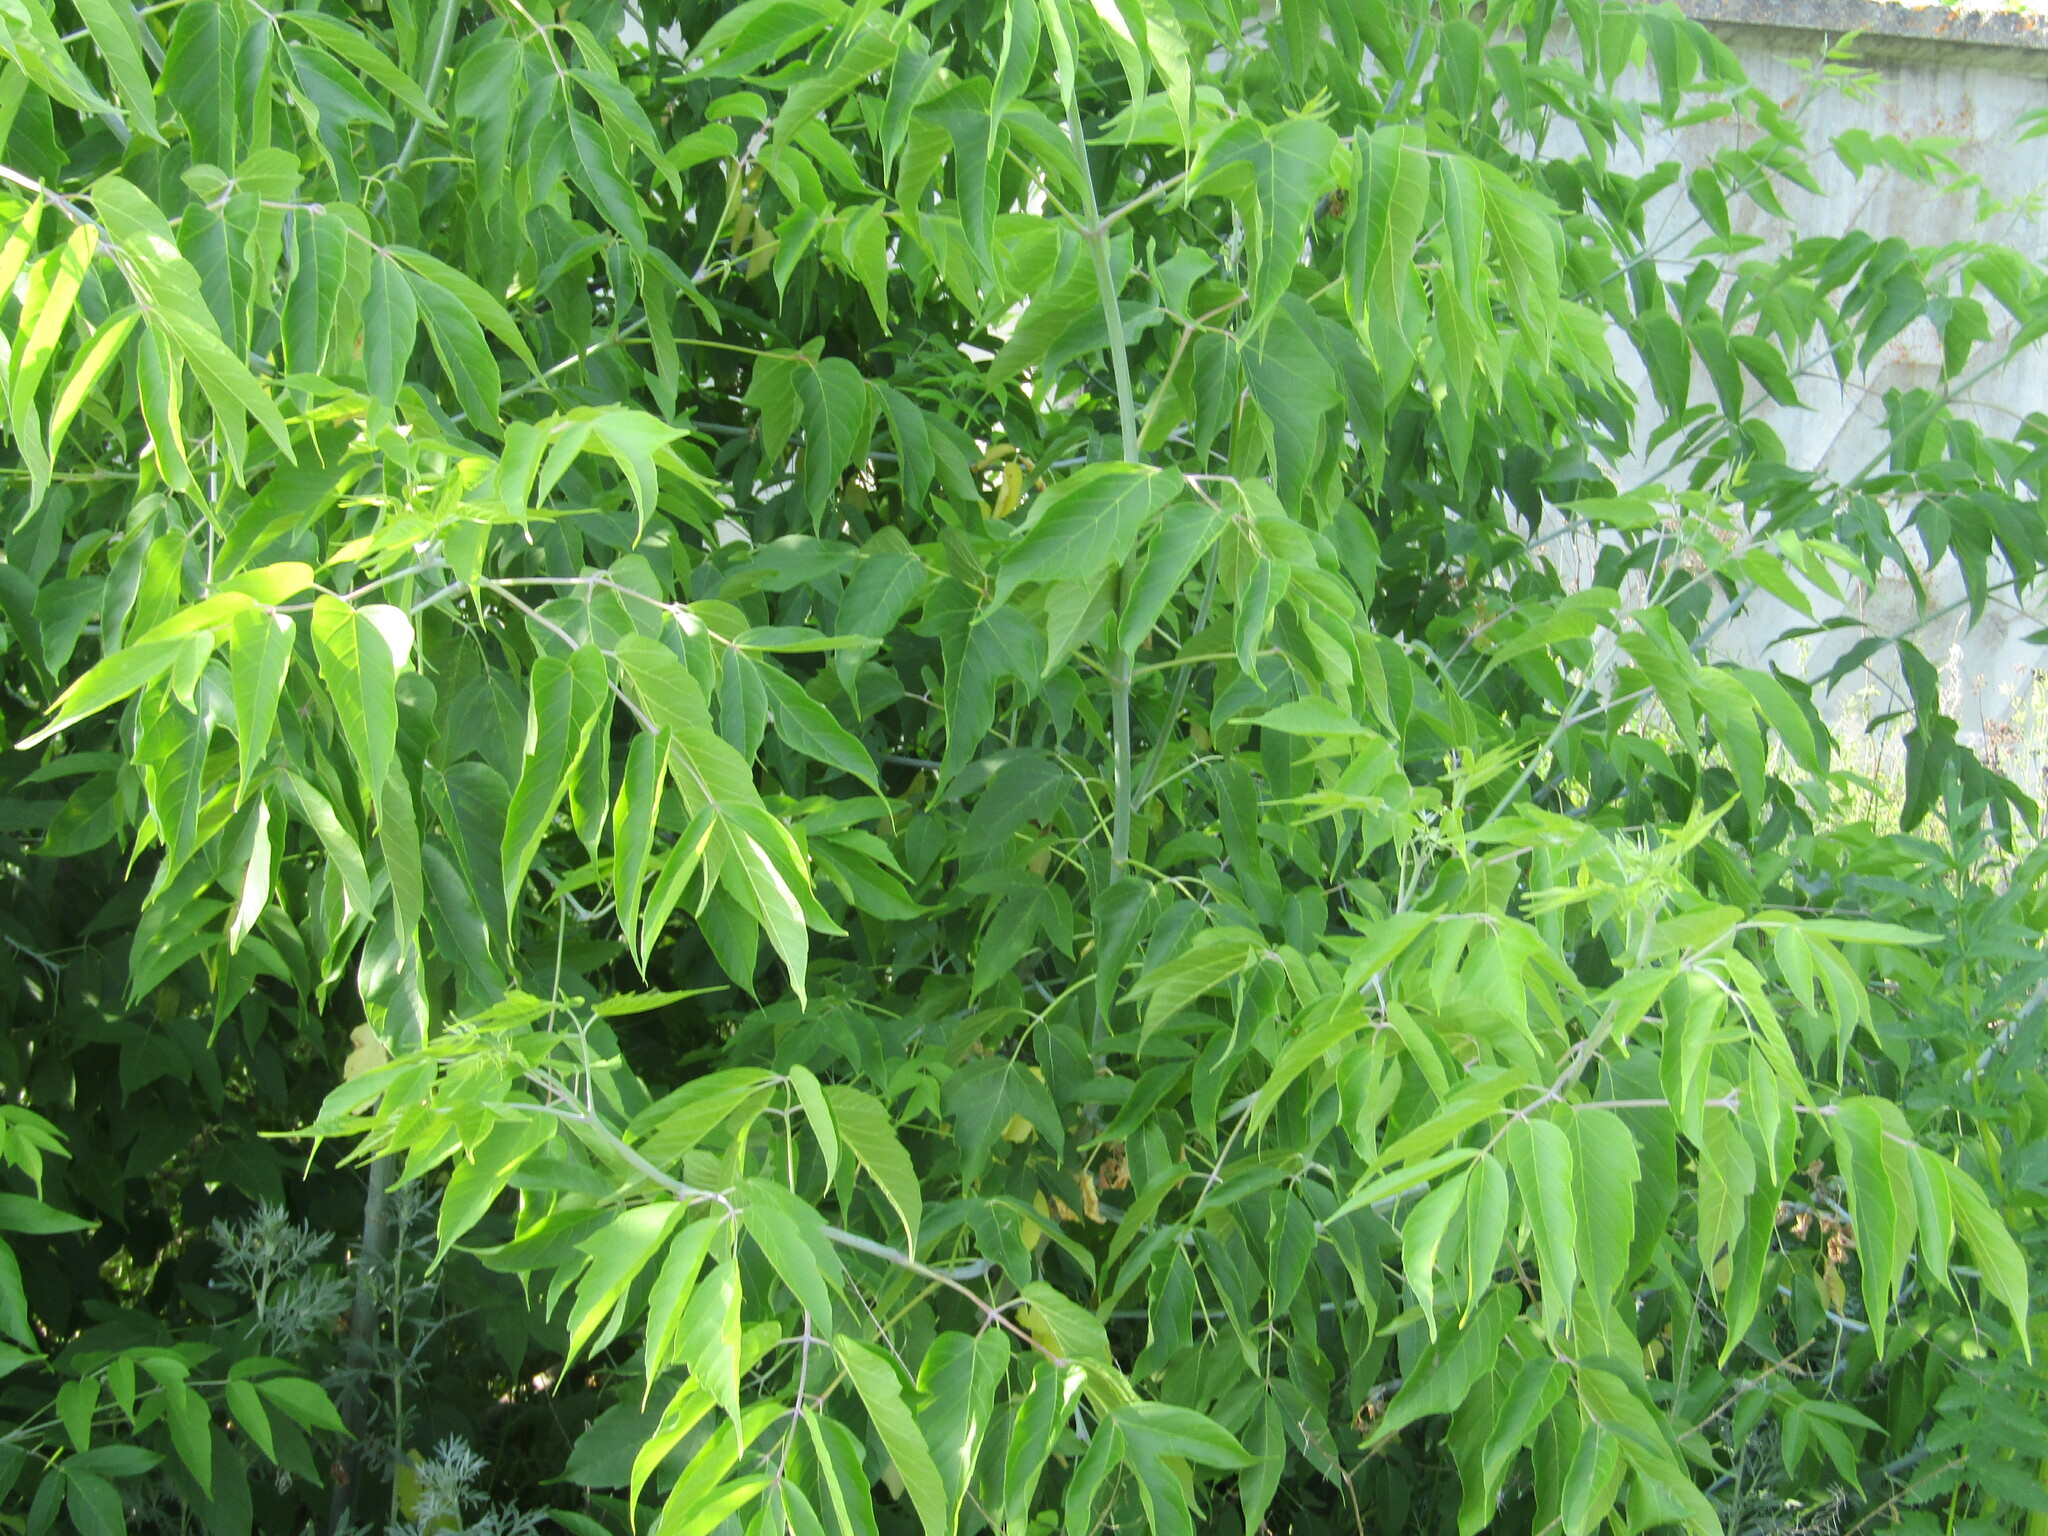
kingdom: Plantae
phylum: Tracheophyta
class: Magnoliopsida
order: Sapindales
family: Sapindaceae
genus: Acer
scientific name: Acer negundo
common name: Ashleaf maple
